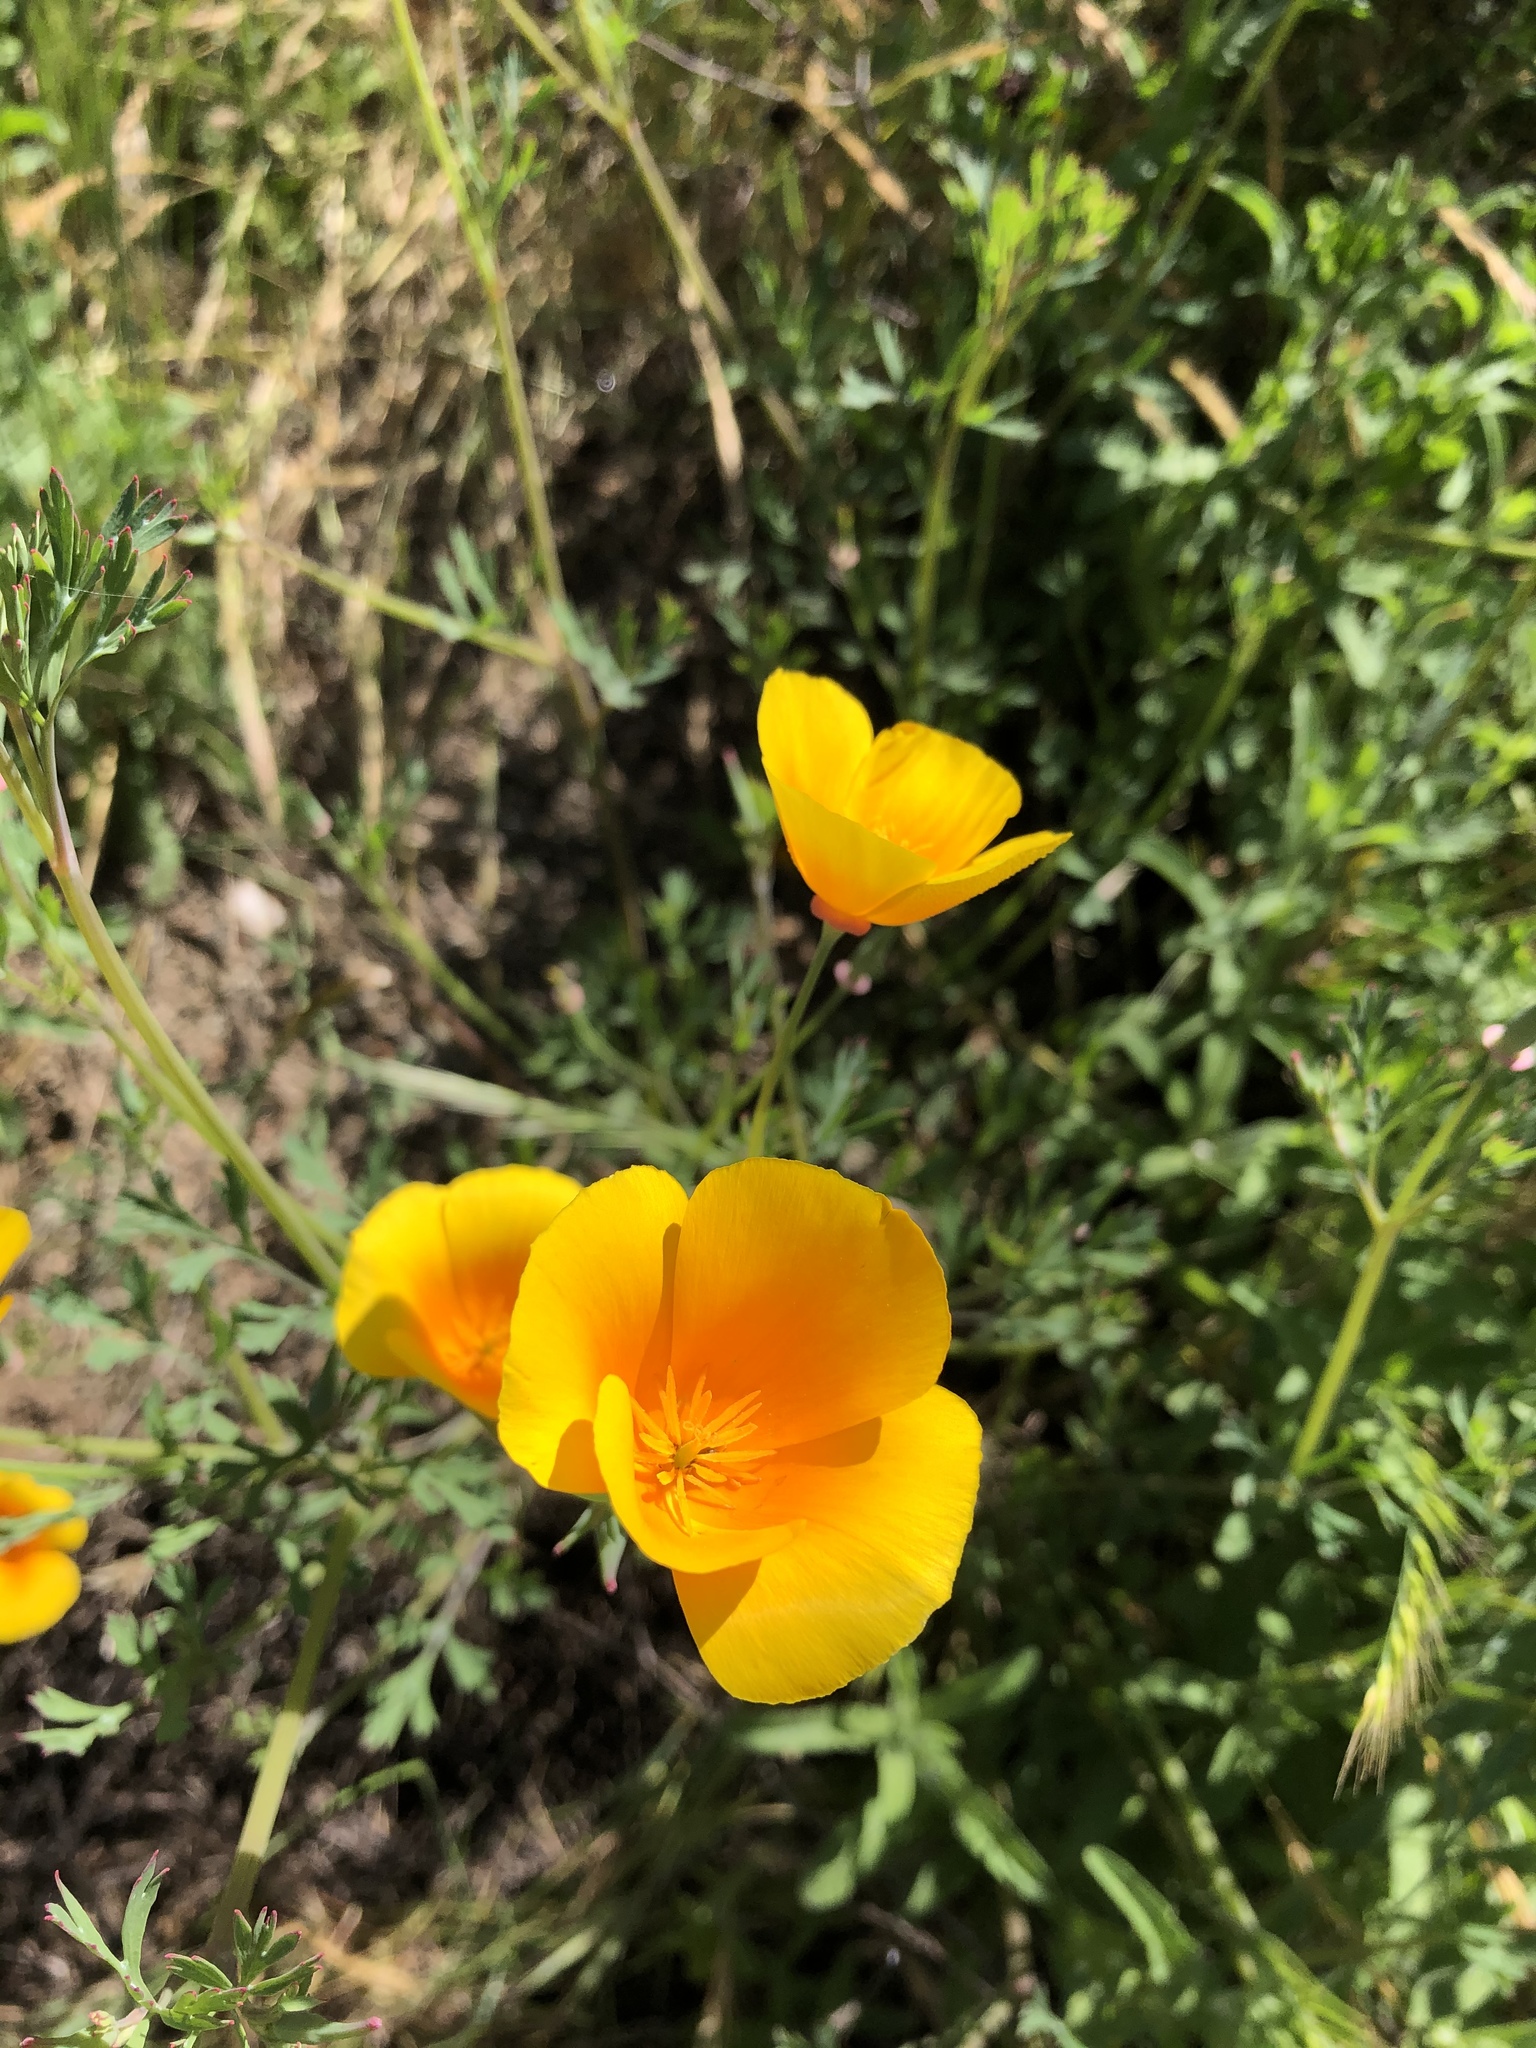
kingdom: Plantae
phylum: Tracheophyta
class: Magnoliopsida
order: Ranunculales
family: Papaveraceae
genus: Eschscholzia
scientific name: Eschscholzia californica
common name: California poppy
